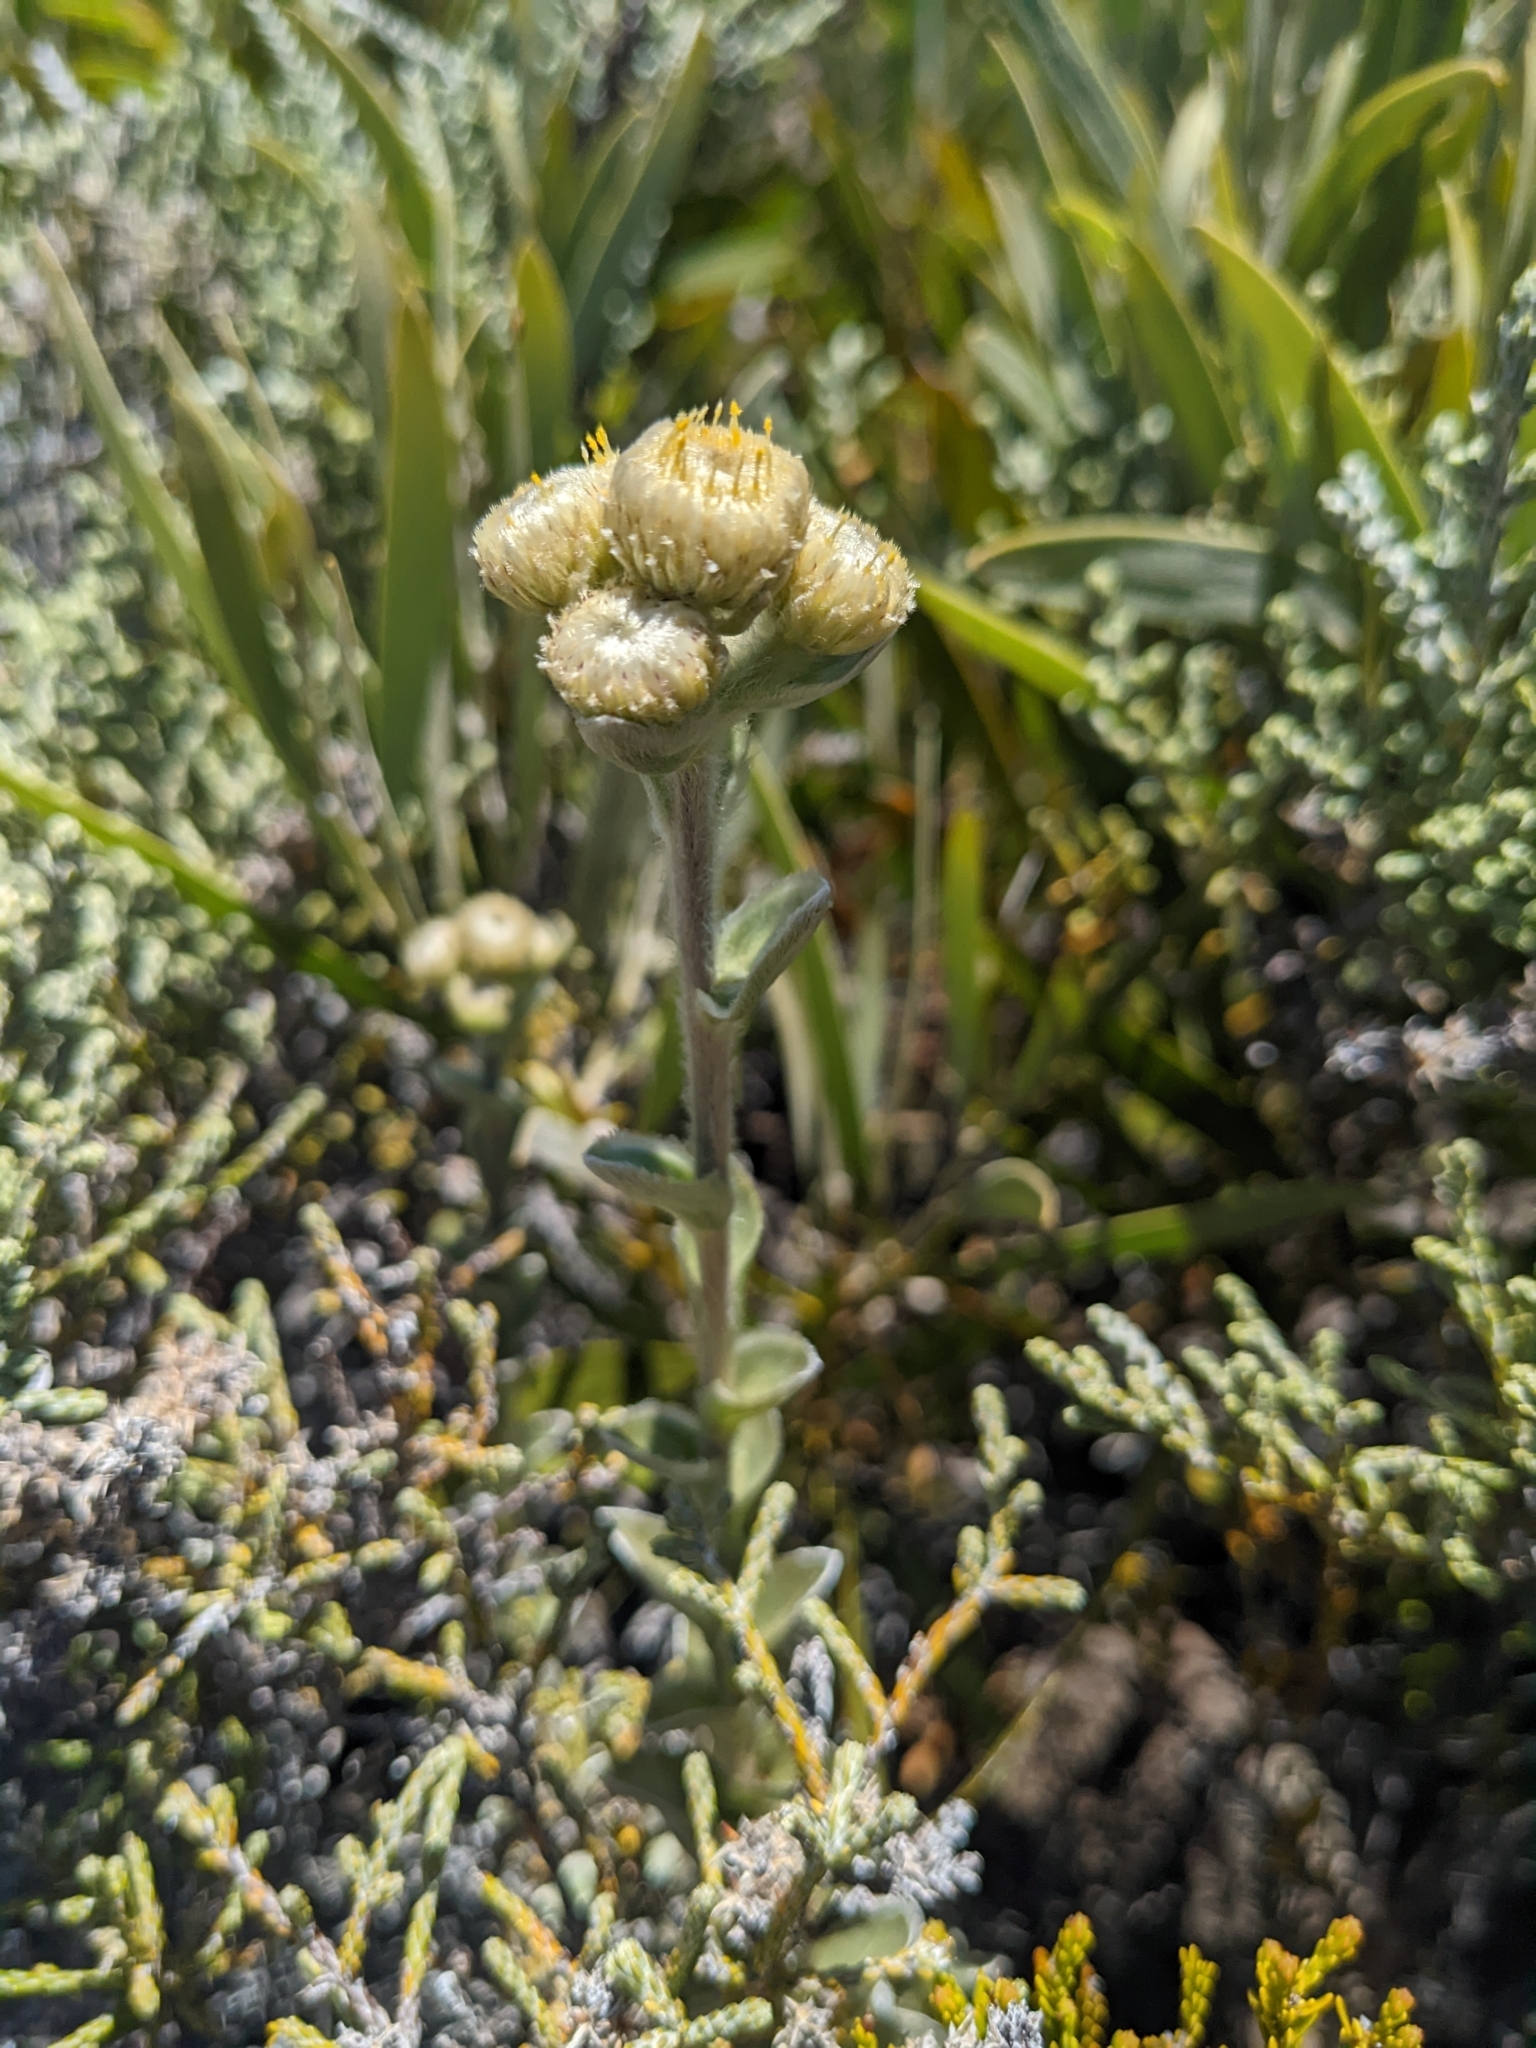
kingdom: Plantae
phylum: Tracheophyta
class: Magnoliopsida
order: Asterales
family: Asteraceae
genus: Psiadia
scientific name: Psiadia argentea
